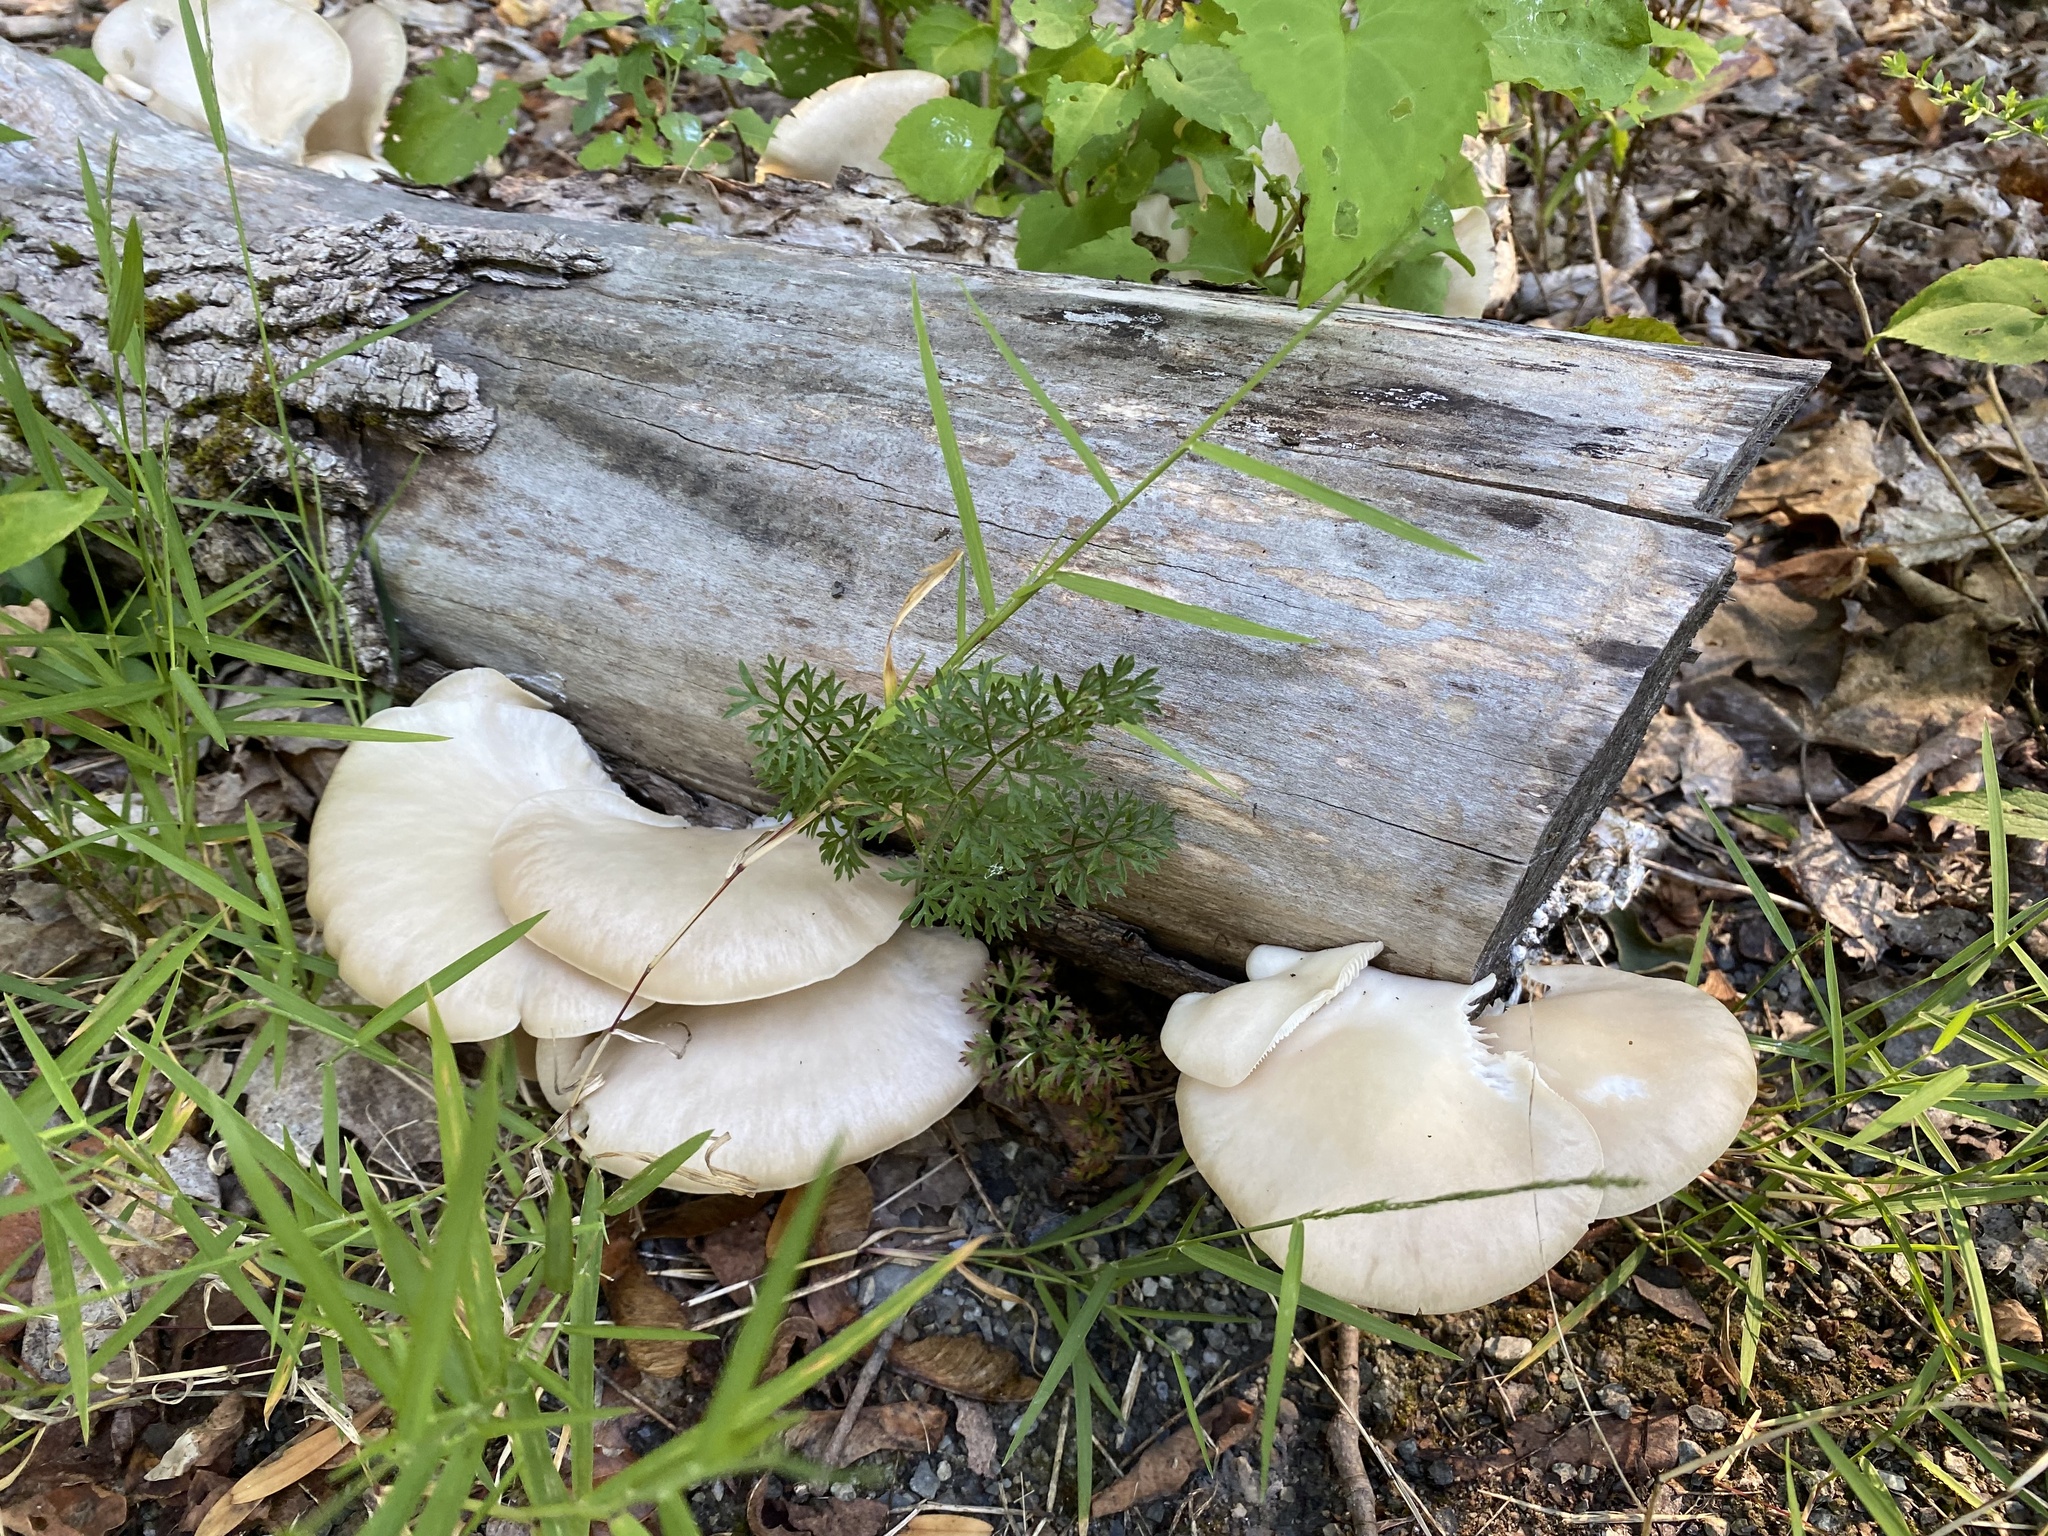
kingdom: Fungi
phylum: Basidiomycota
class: Agaricomycetes
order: Agaricales
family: Pleurotaceae
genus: Pleurotus
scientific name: Pleurotus pulmonarius
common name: Pale oyster
